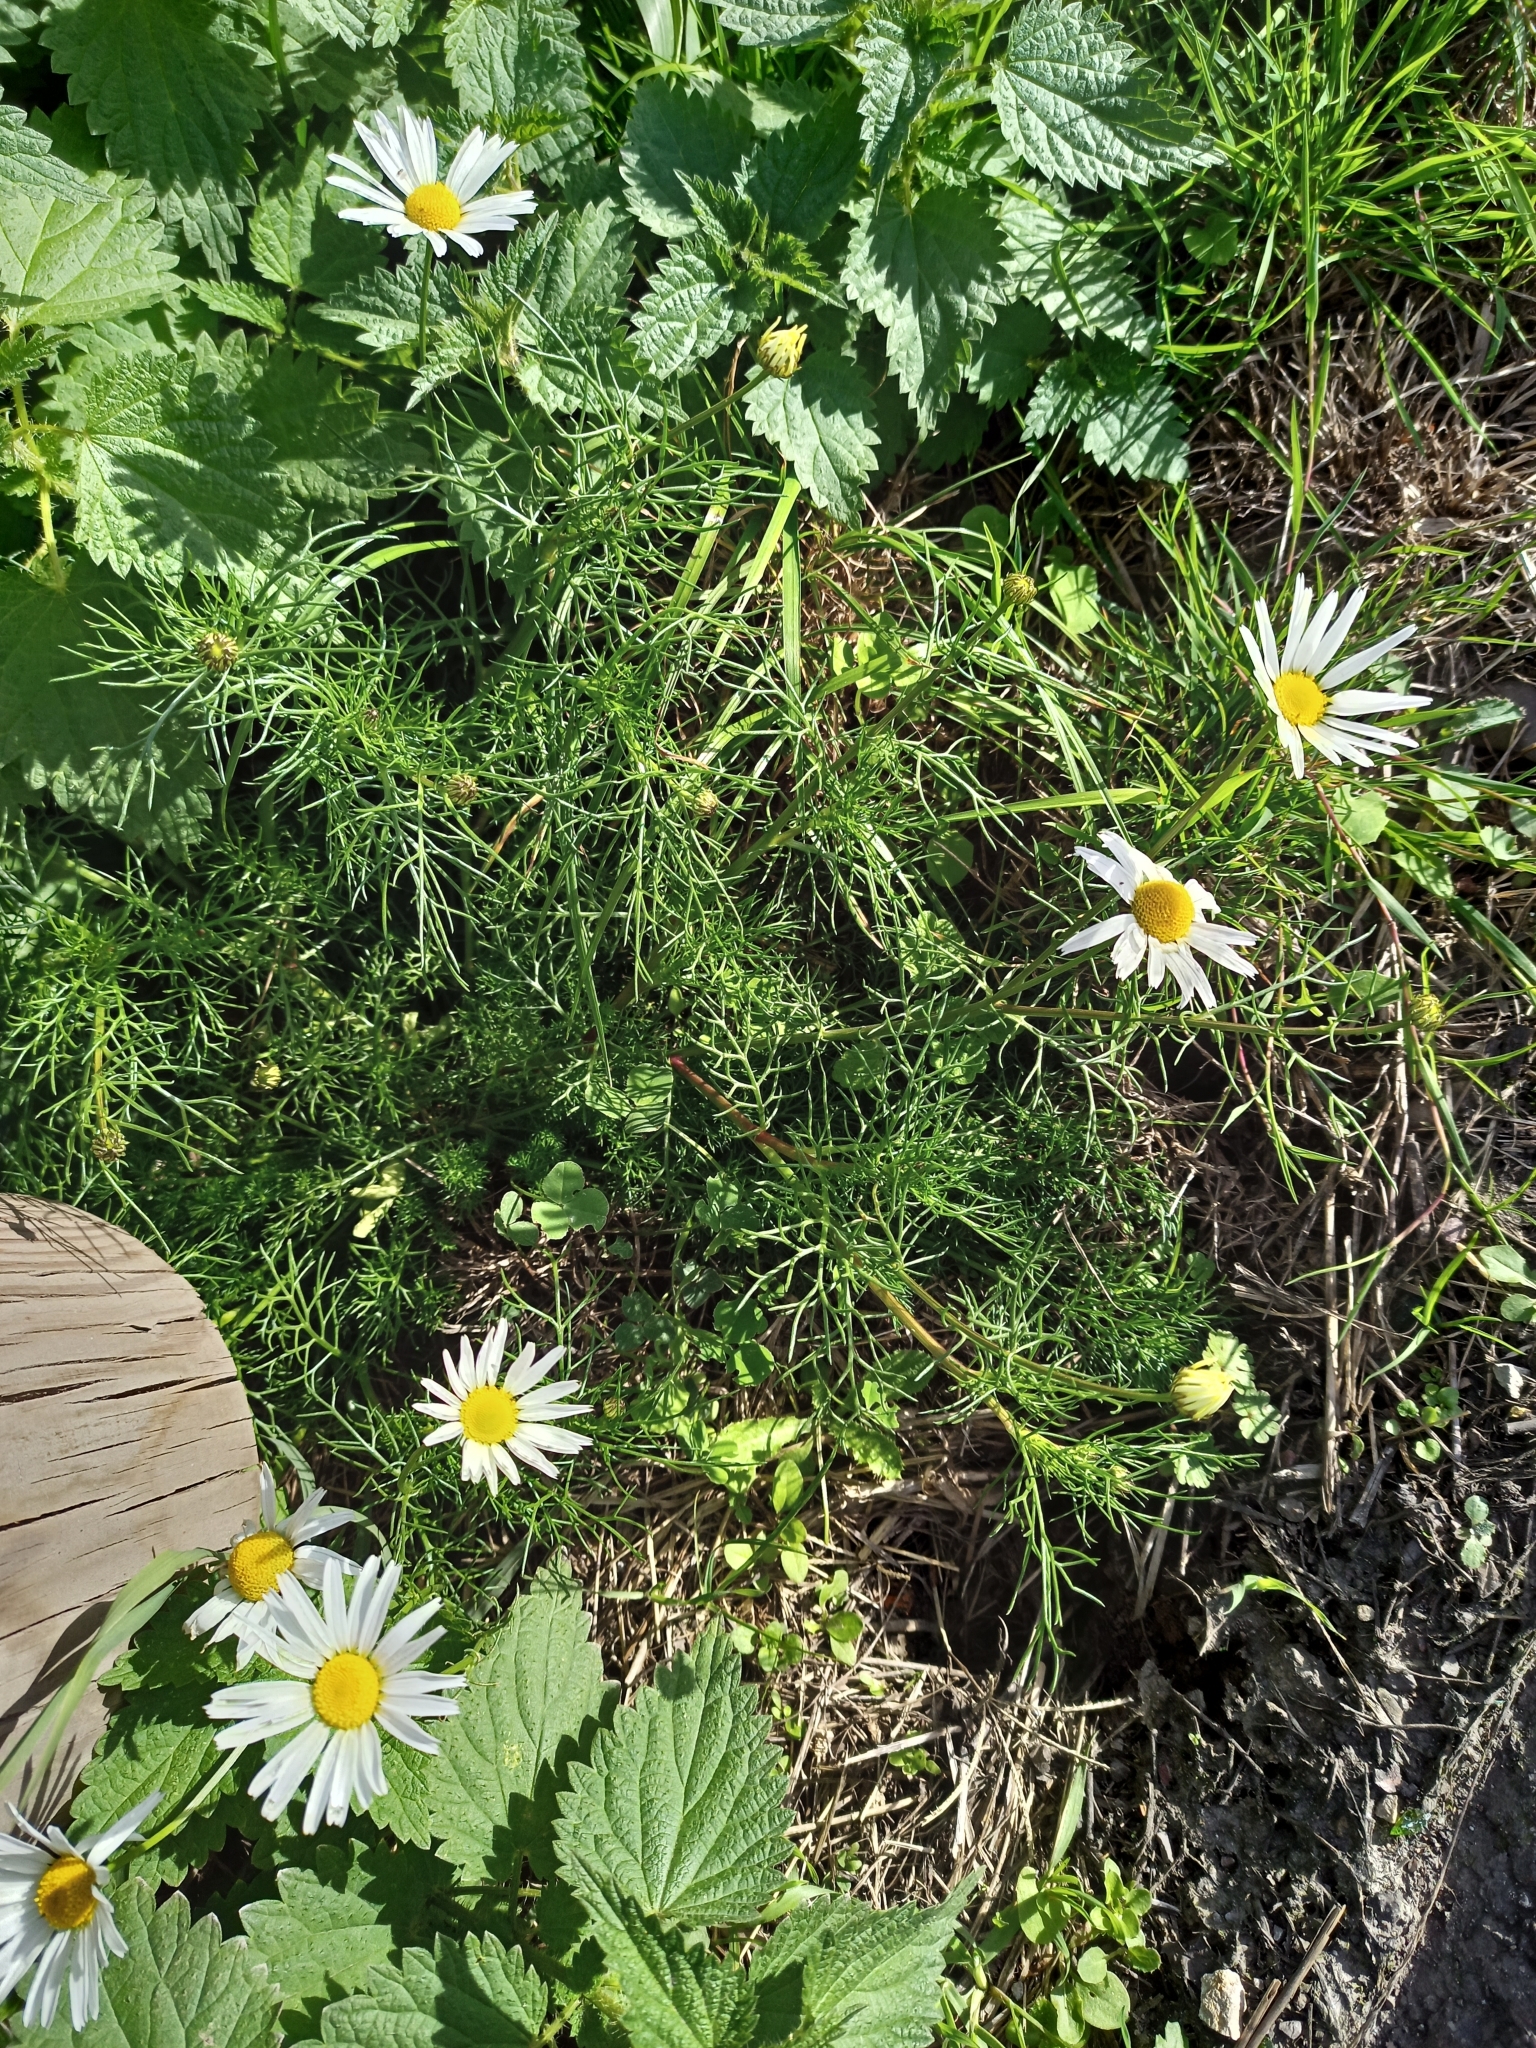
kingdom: Plantae
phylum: Tracheophyta
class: Magnoliopsida
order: Asterales
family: Asteraceae
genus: Tripleurospermum
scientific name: Tripleurospermum inodorum
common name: Scentless mayweed
